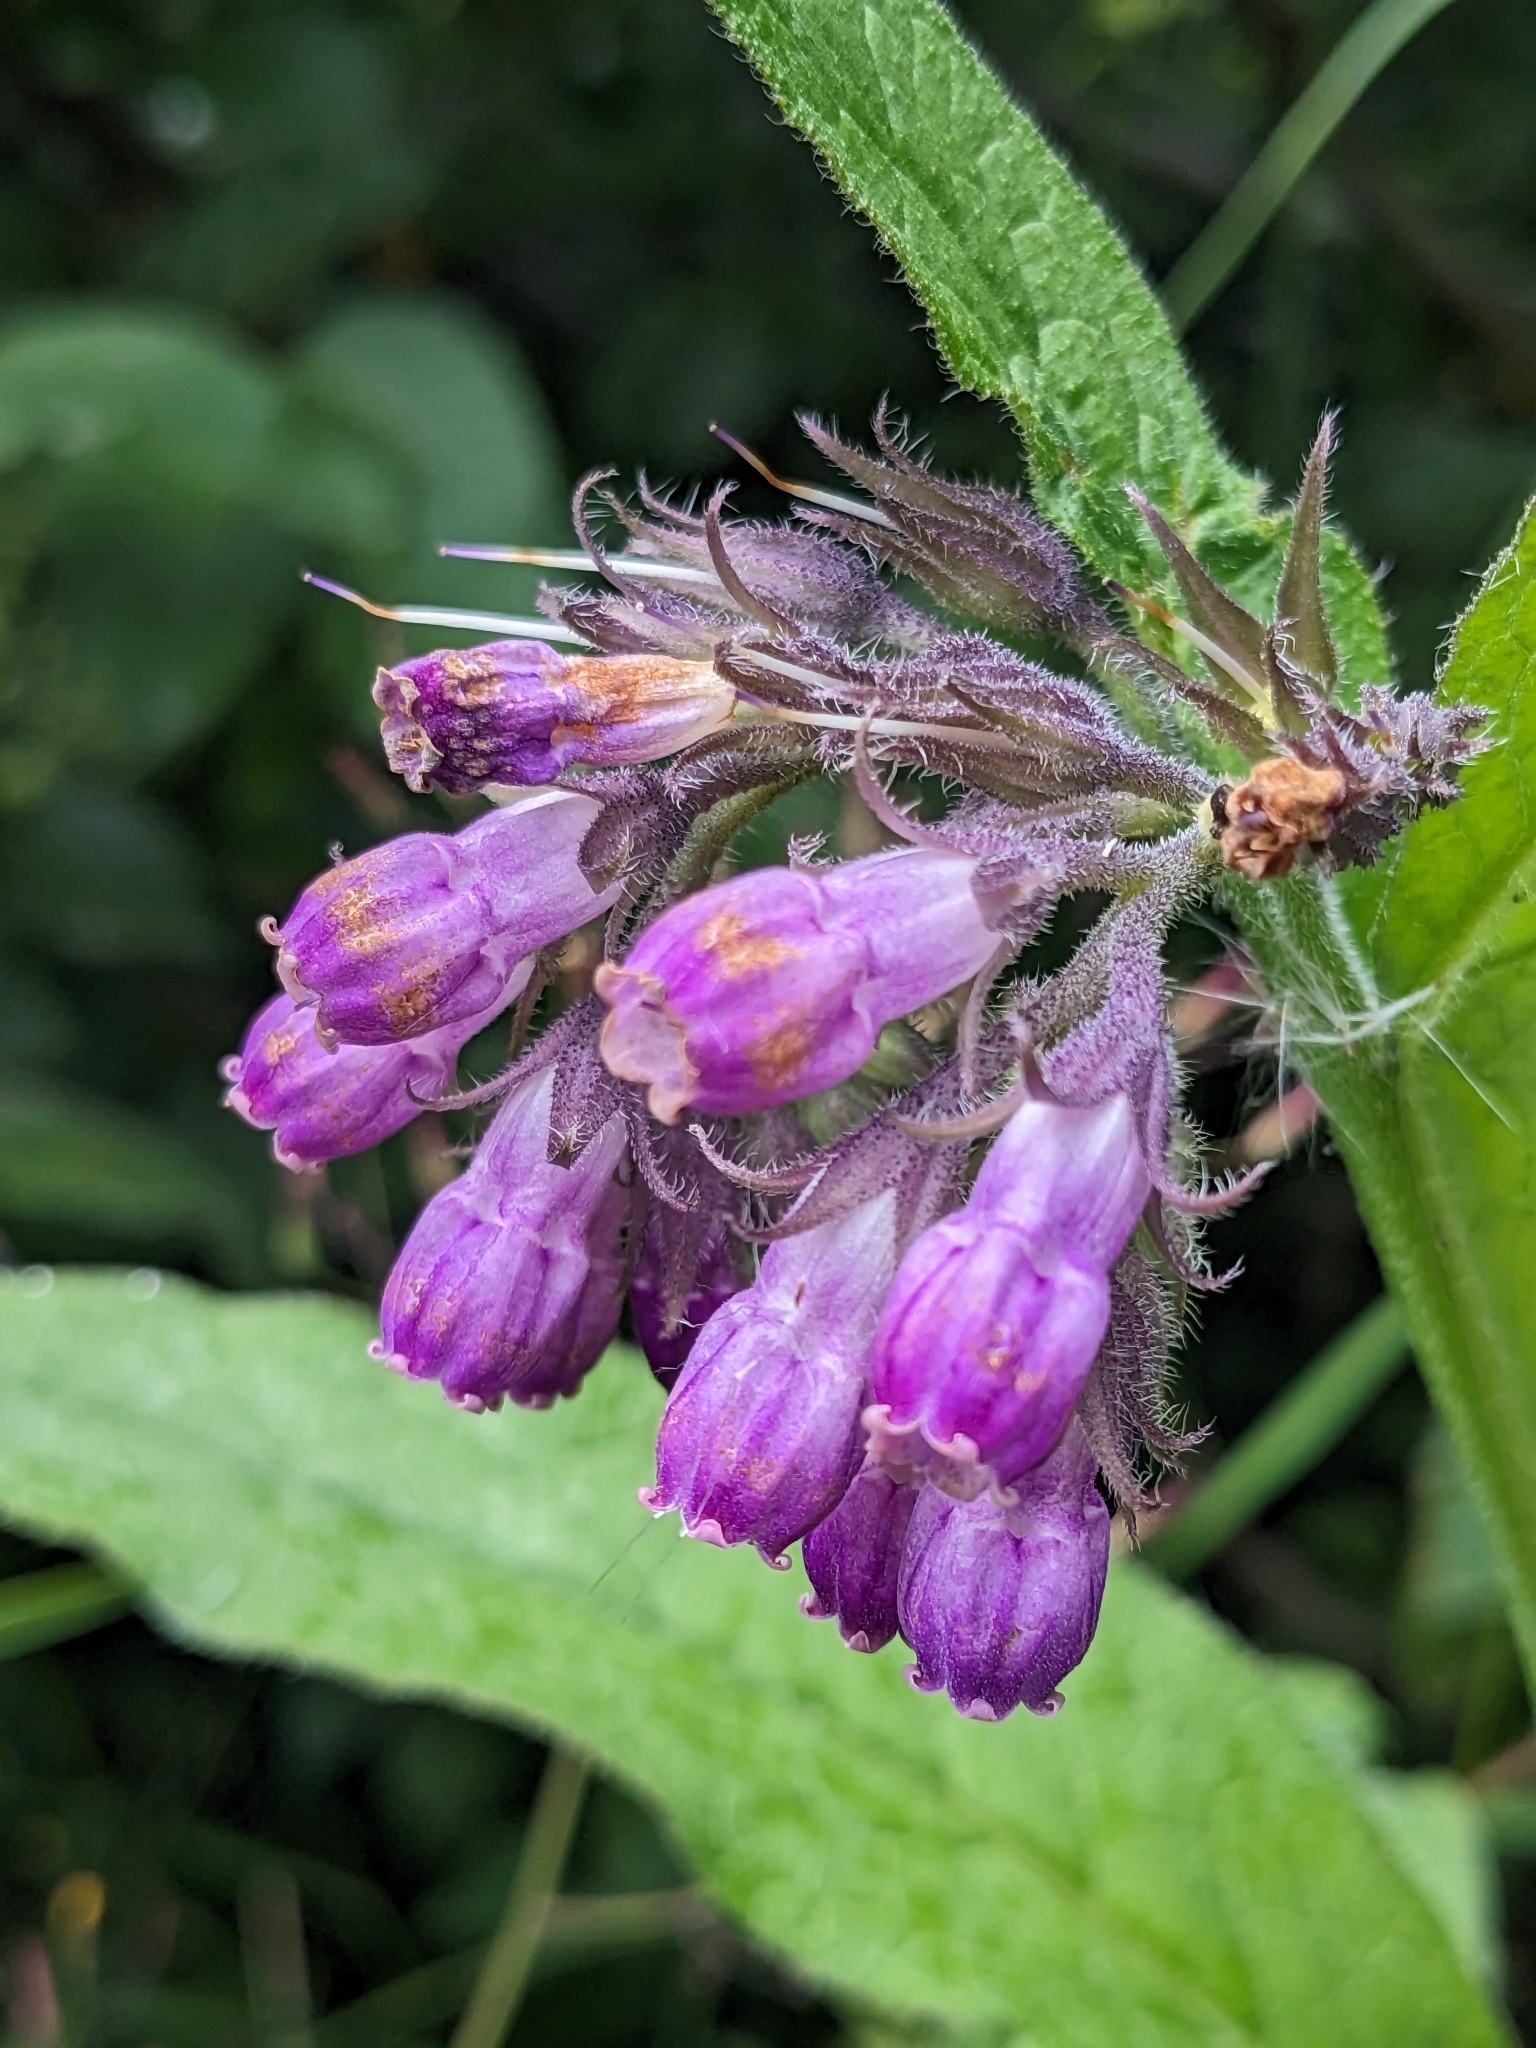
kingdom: Plantae
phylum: Tracheophyta
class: Magnoliopsida
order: Boraginales
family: Boraginaceae
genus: Symphytum
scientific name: Symphytum officinale
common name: Common comfrey
